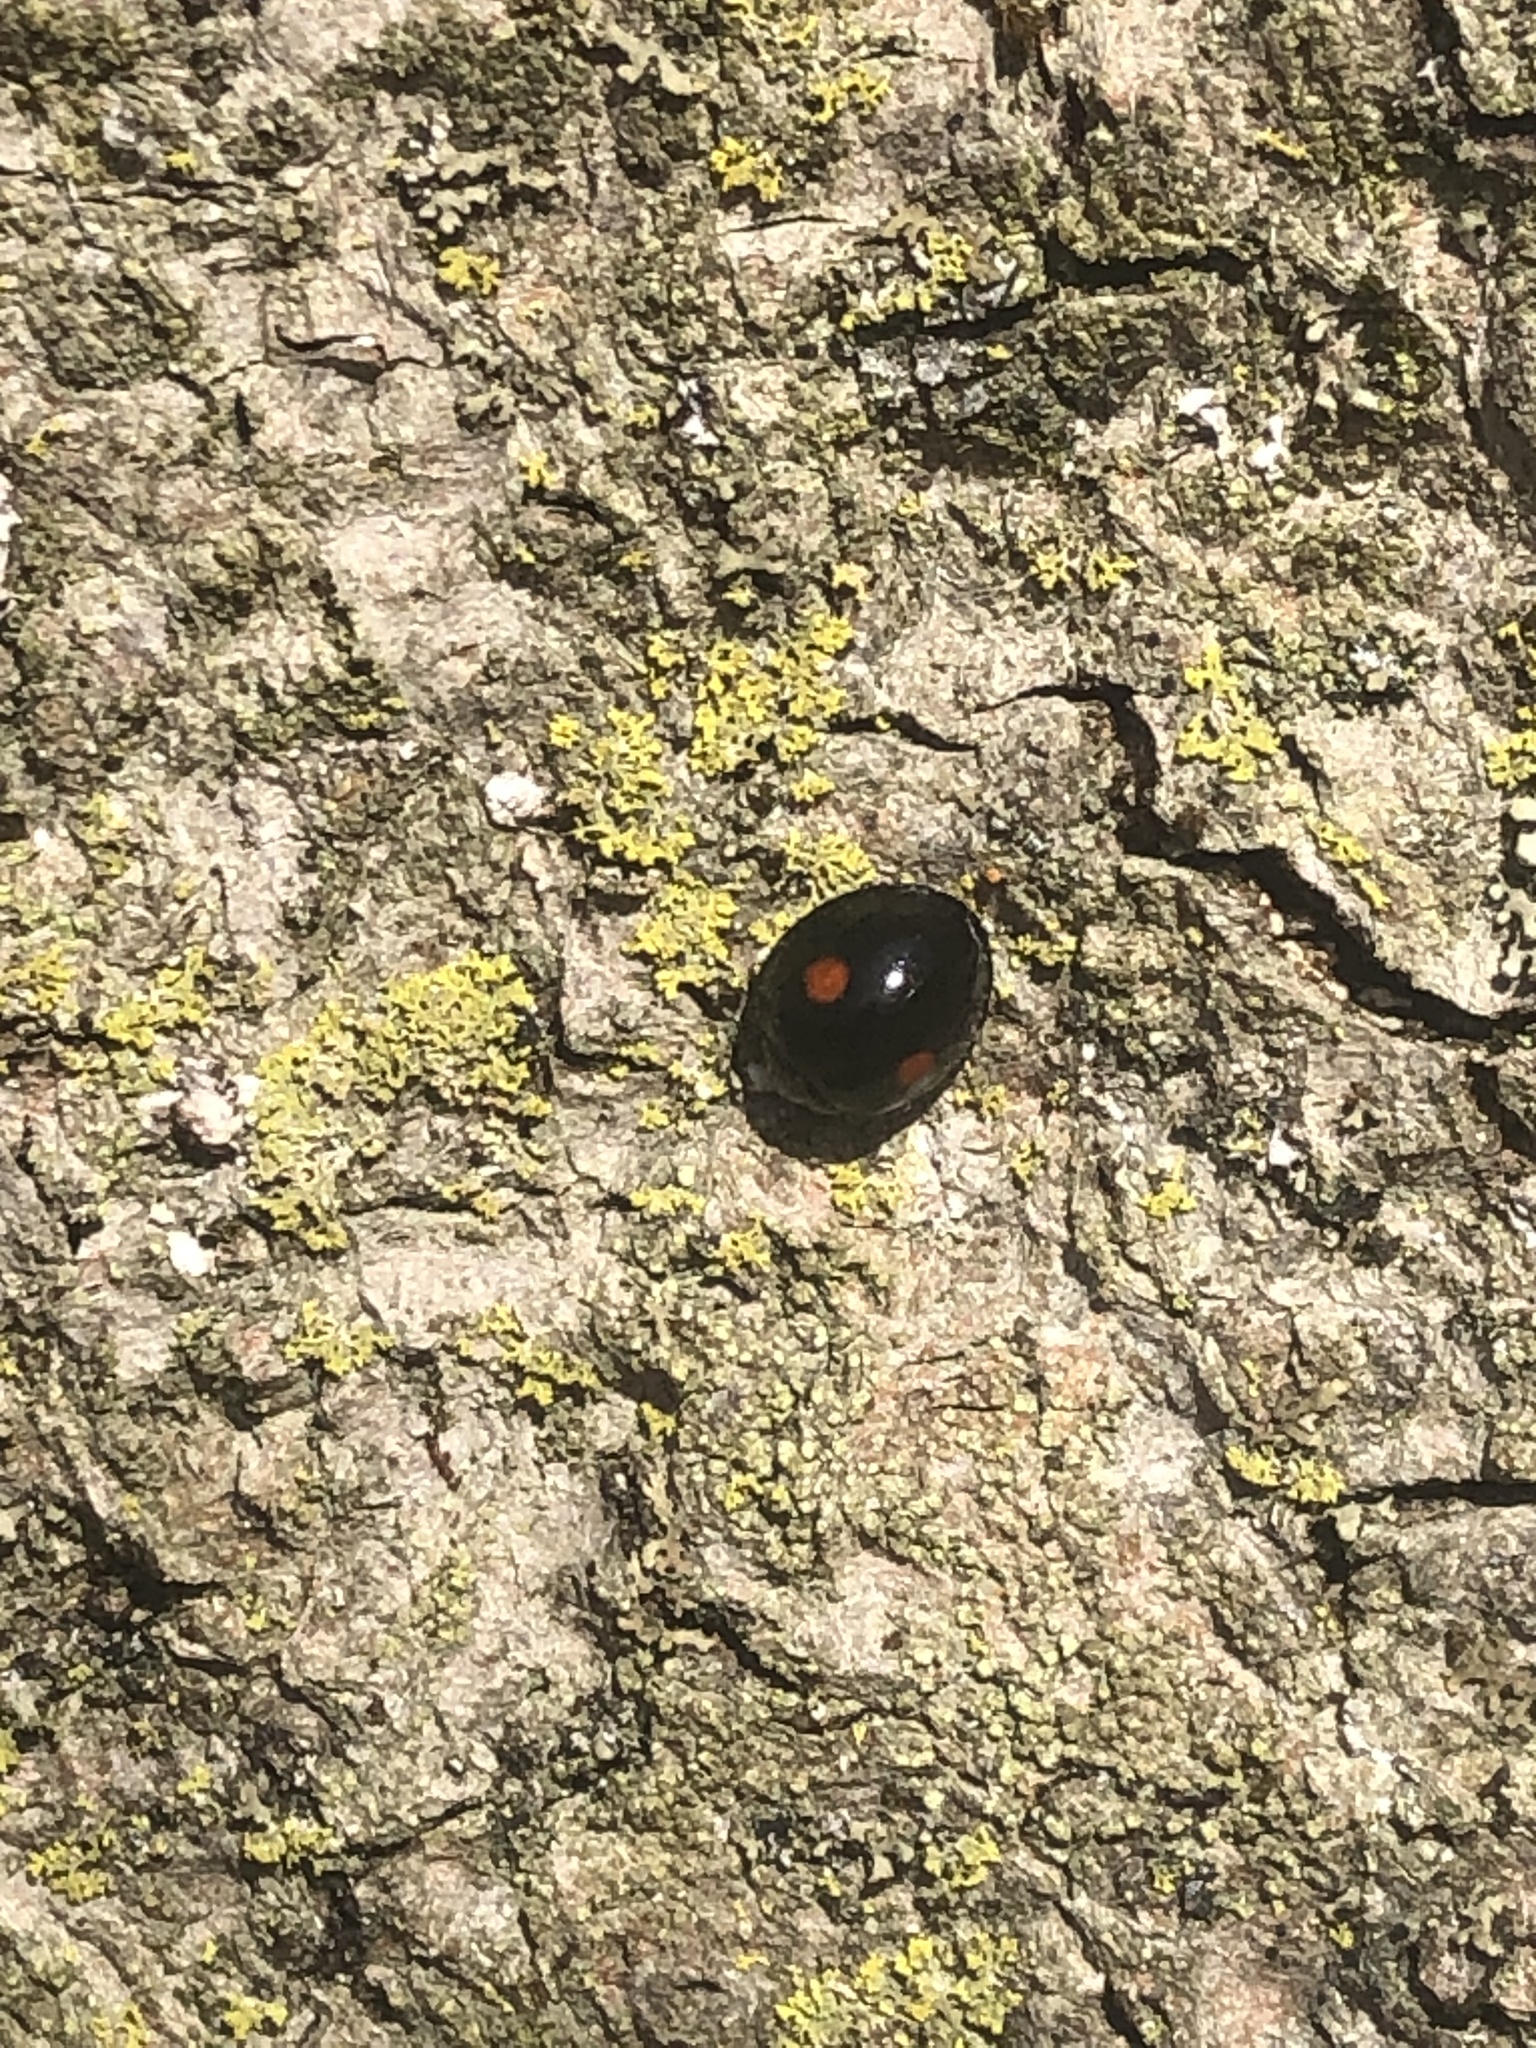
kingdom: Animalia
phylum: Arthropoda
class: Insecta
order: Coleoptera
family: Coccinellidae
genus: Chilocorus
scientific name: Chilocorus stigma
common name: Twicestabbed lady beetle
